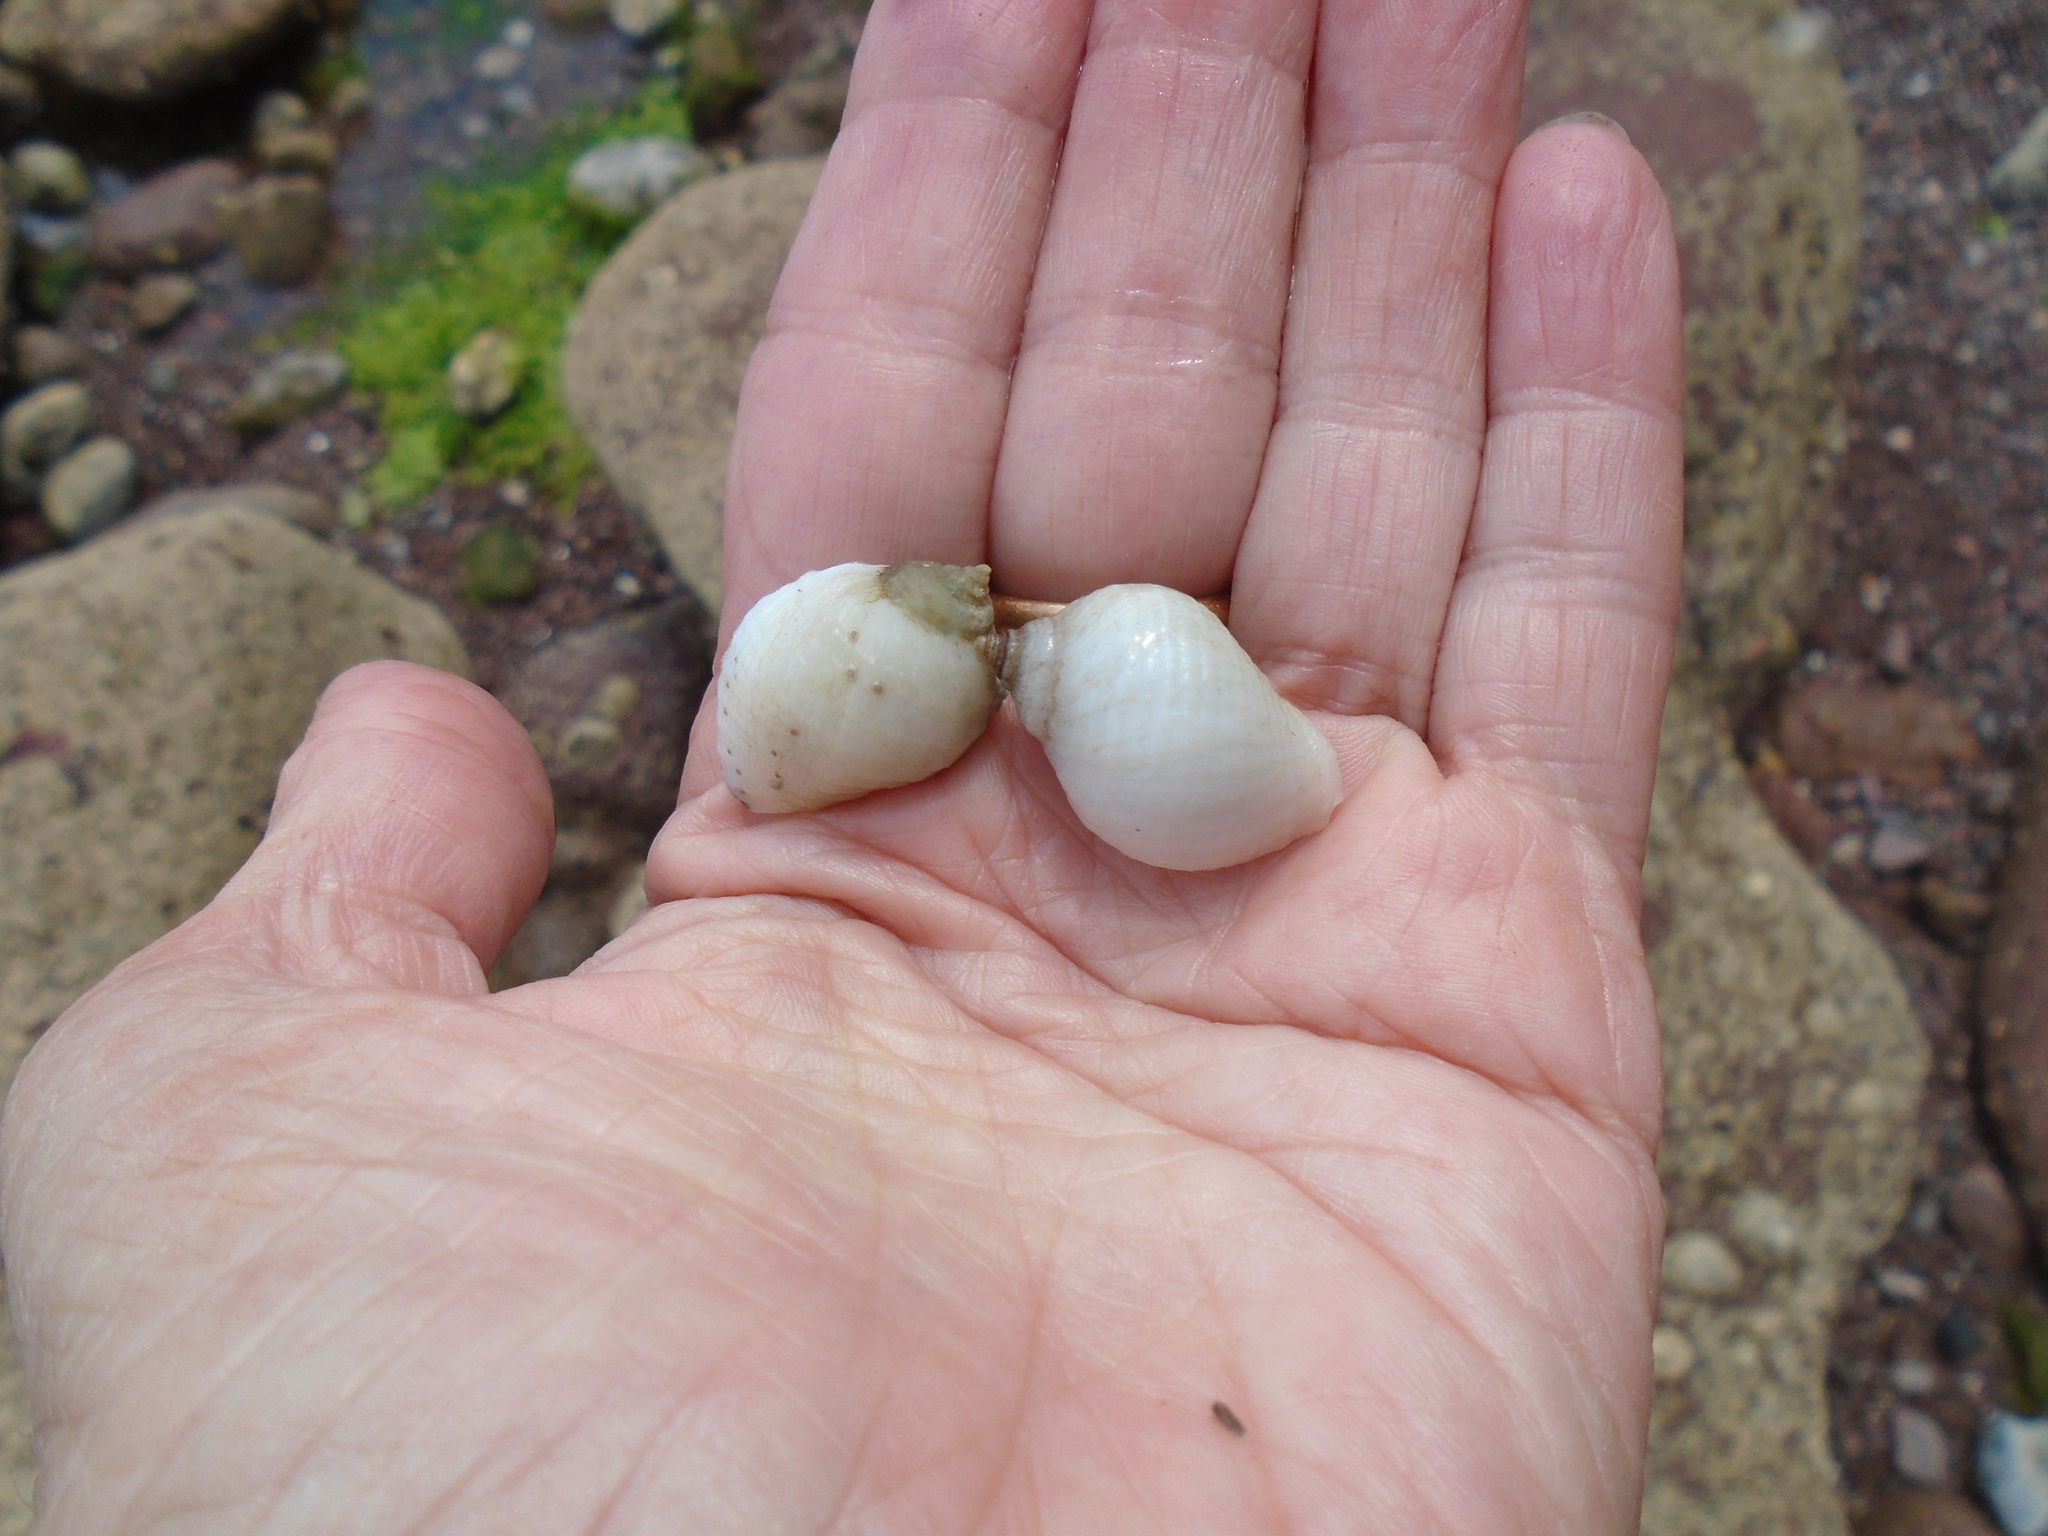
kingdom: Animalia
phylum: Mollusca
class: Gastropoda
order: Neogastropoda
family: Muricidae
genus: Nucella
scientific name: Nucella lapillus
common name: Dog whelk
